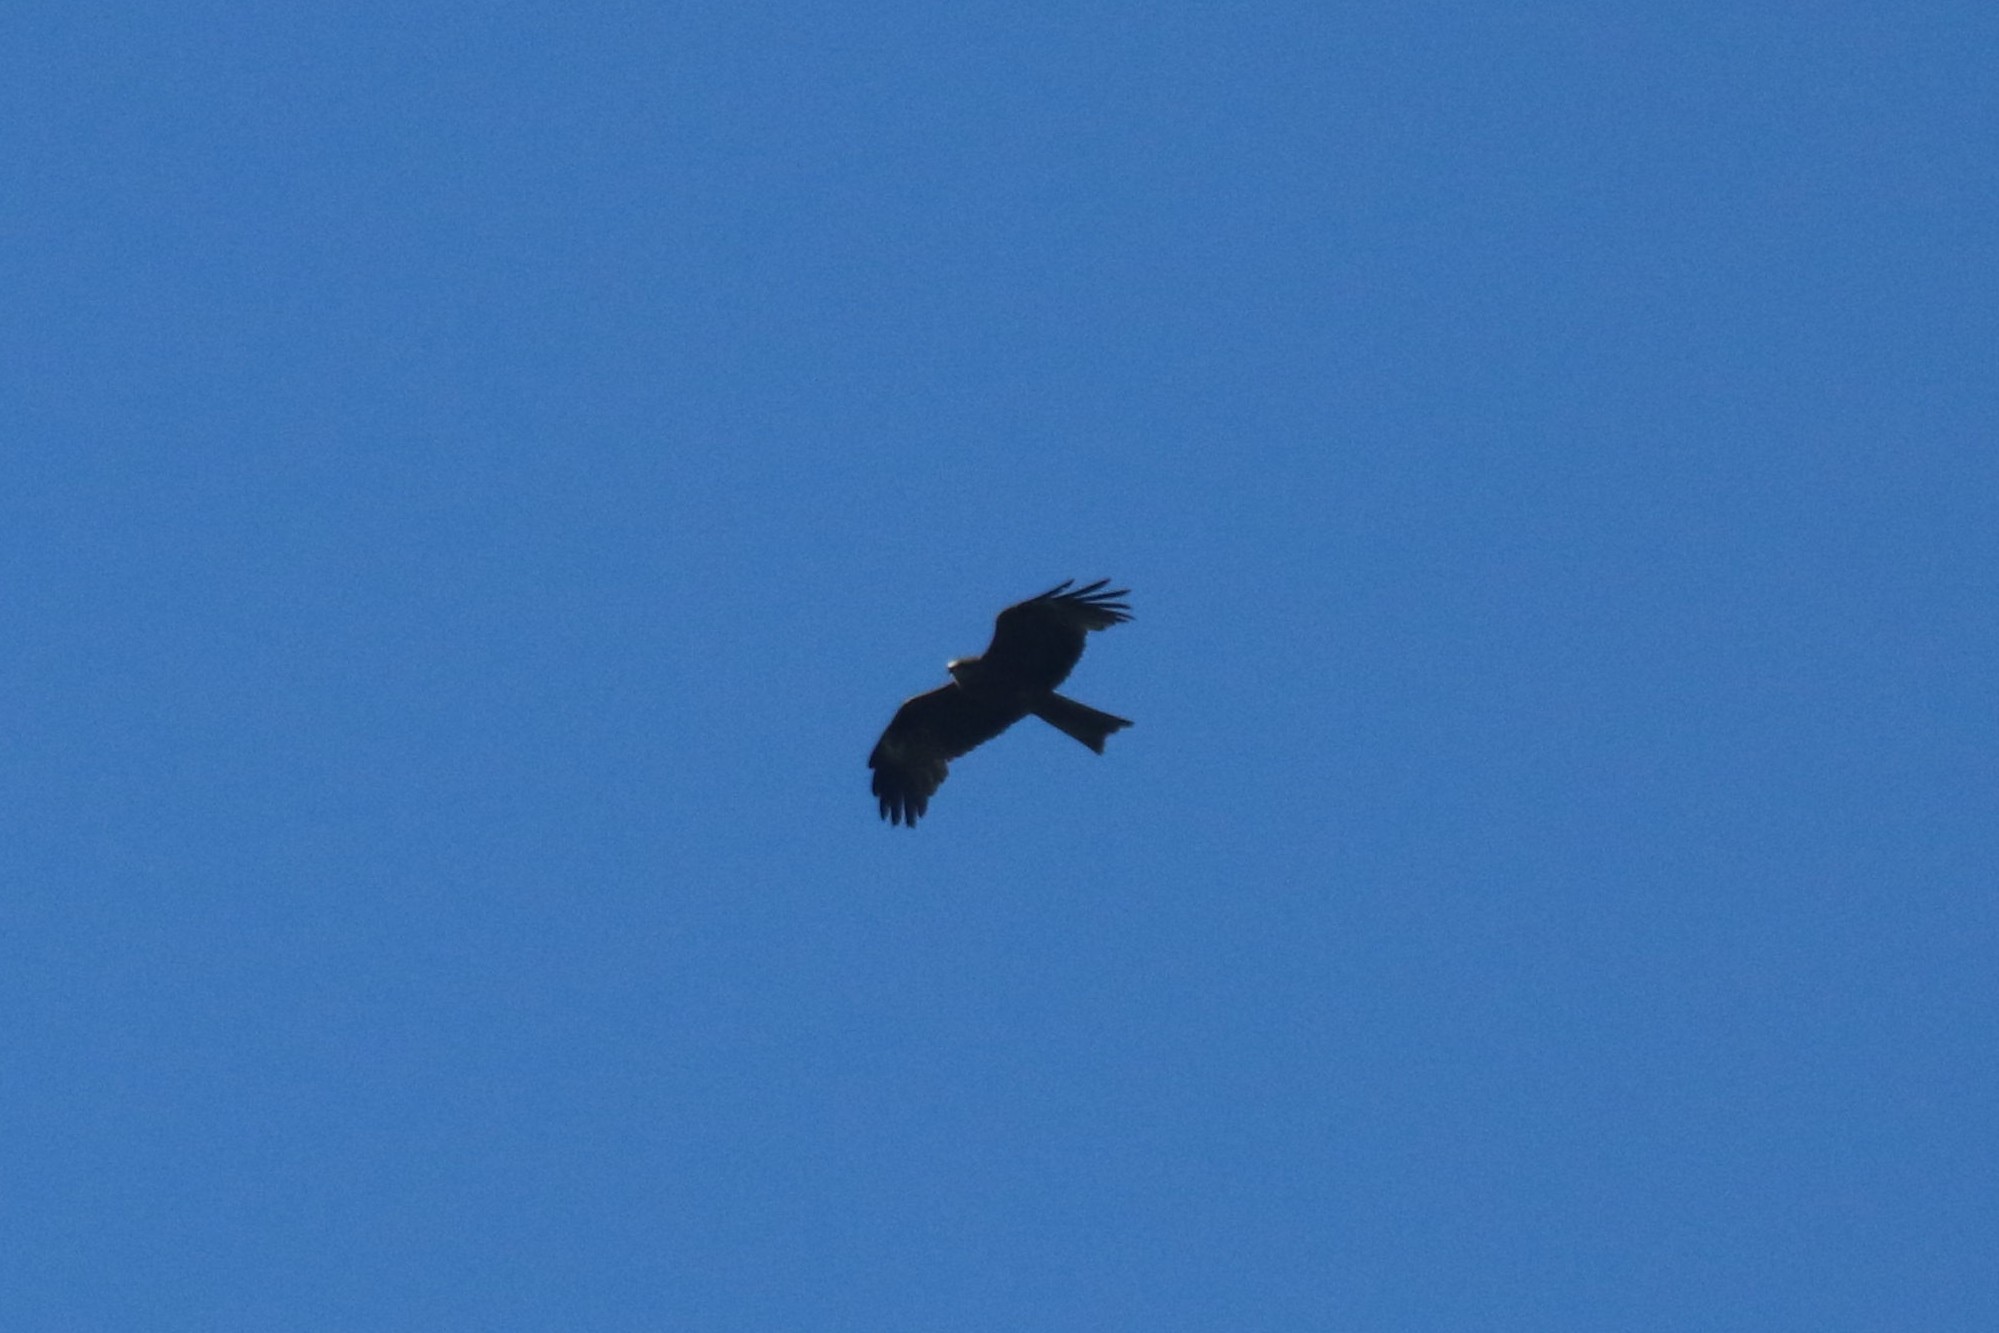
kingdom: Animalia
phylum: Chordata
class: Aves
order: Accipitriformes
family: Accipitridae
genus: Milvus
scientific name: Milvus migrans
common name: Black kite
